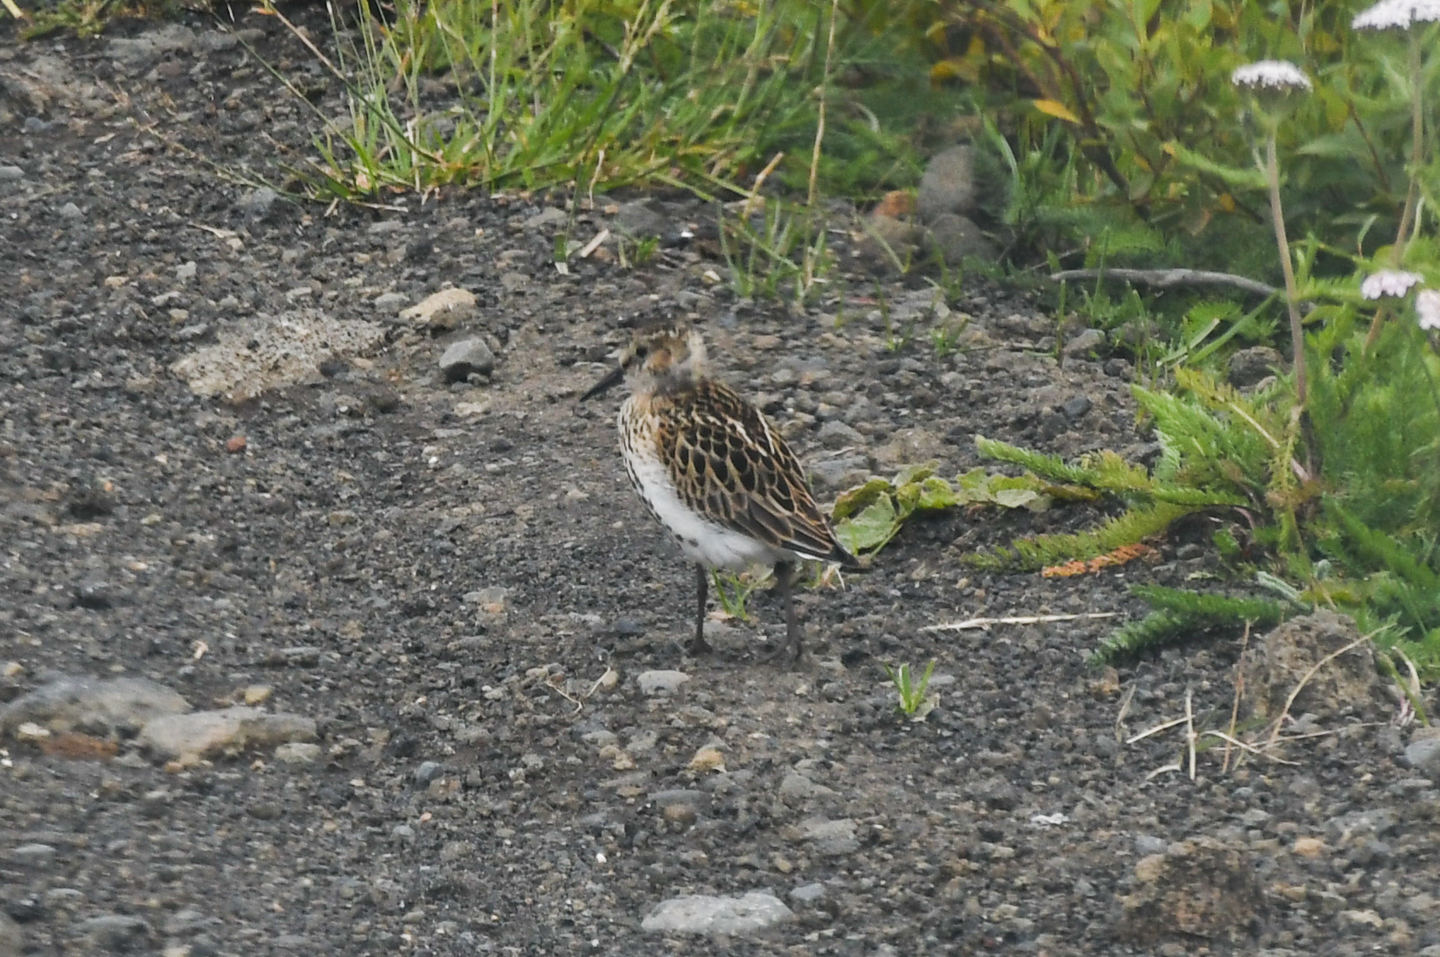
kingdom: Animalia
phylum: Chordata
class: Aves
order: Charadriiformes
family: Scolopacidae
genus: Calidris
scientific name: Calidris alpina
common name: Dunlin
